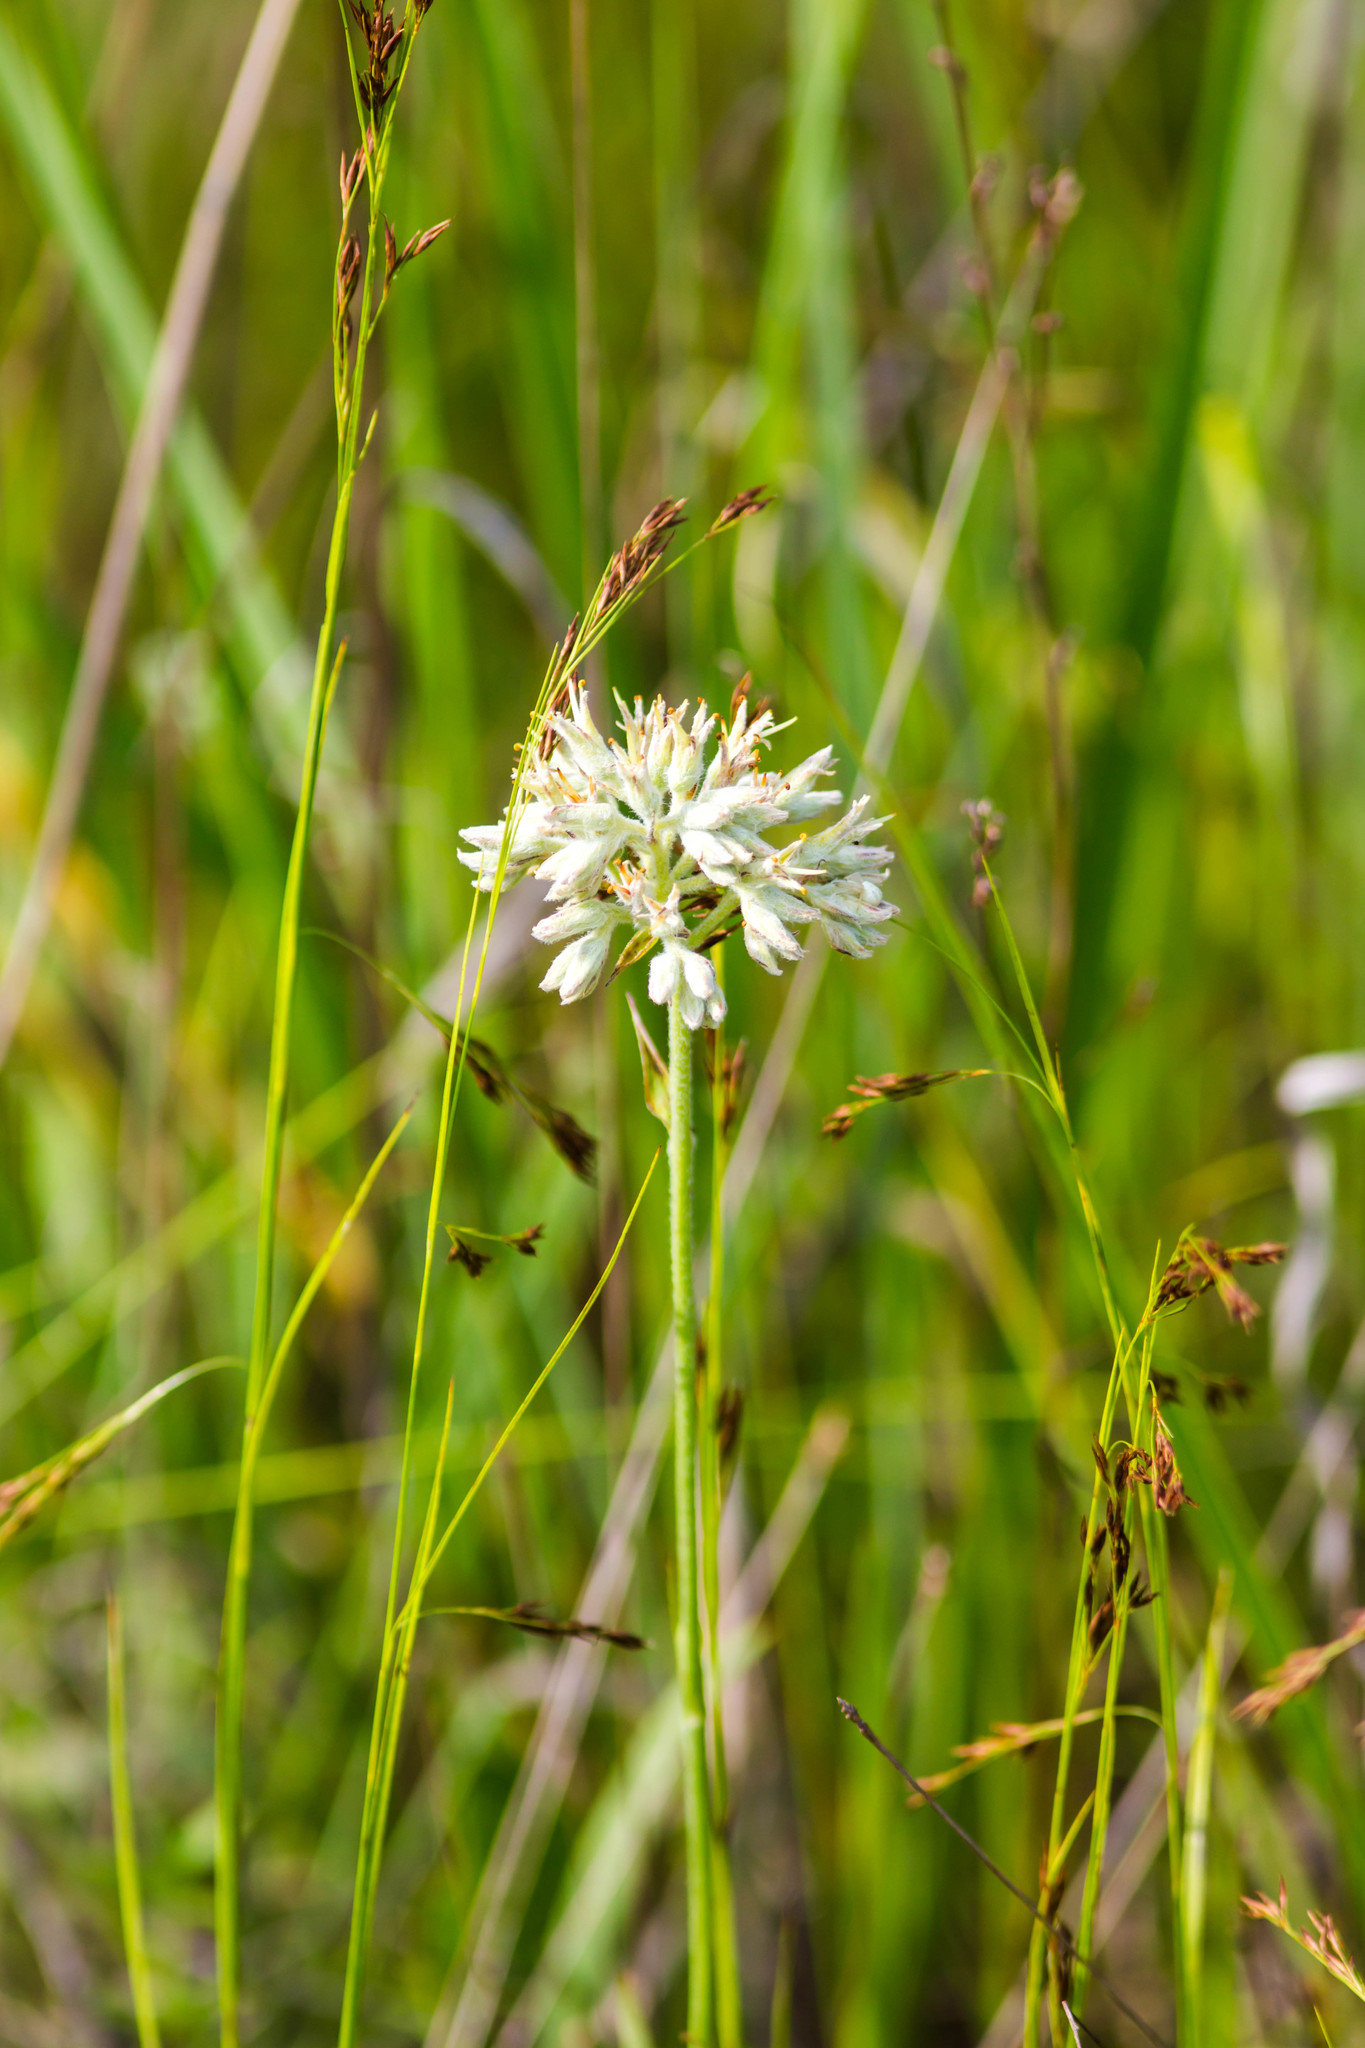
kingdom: Plantae
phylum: Tracheophyta
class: Liliopsida
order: Commelinales
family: Haemodoraceae
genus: Lachnanthes
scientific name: Lachnanthes caroliana
